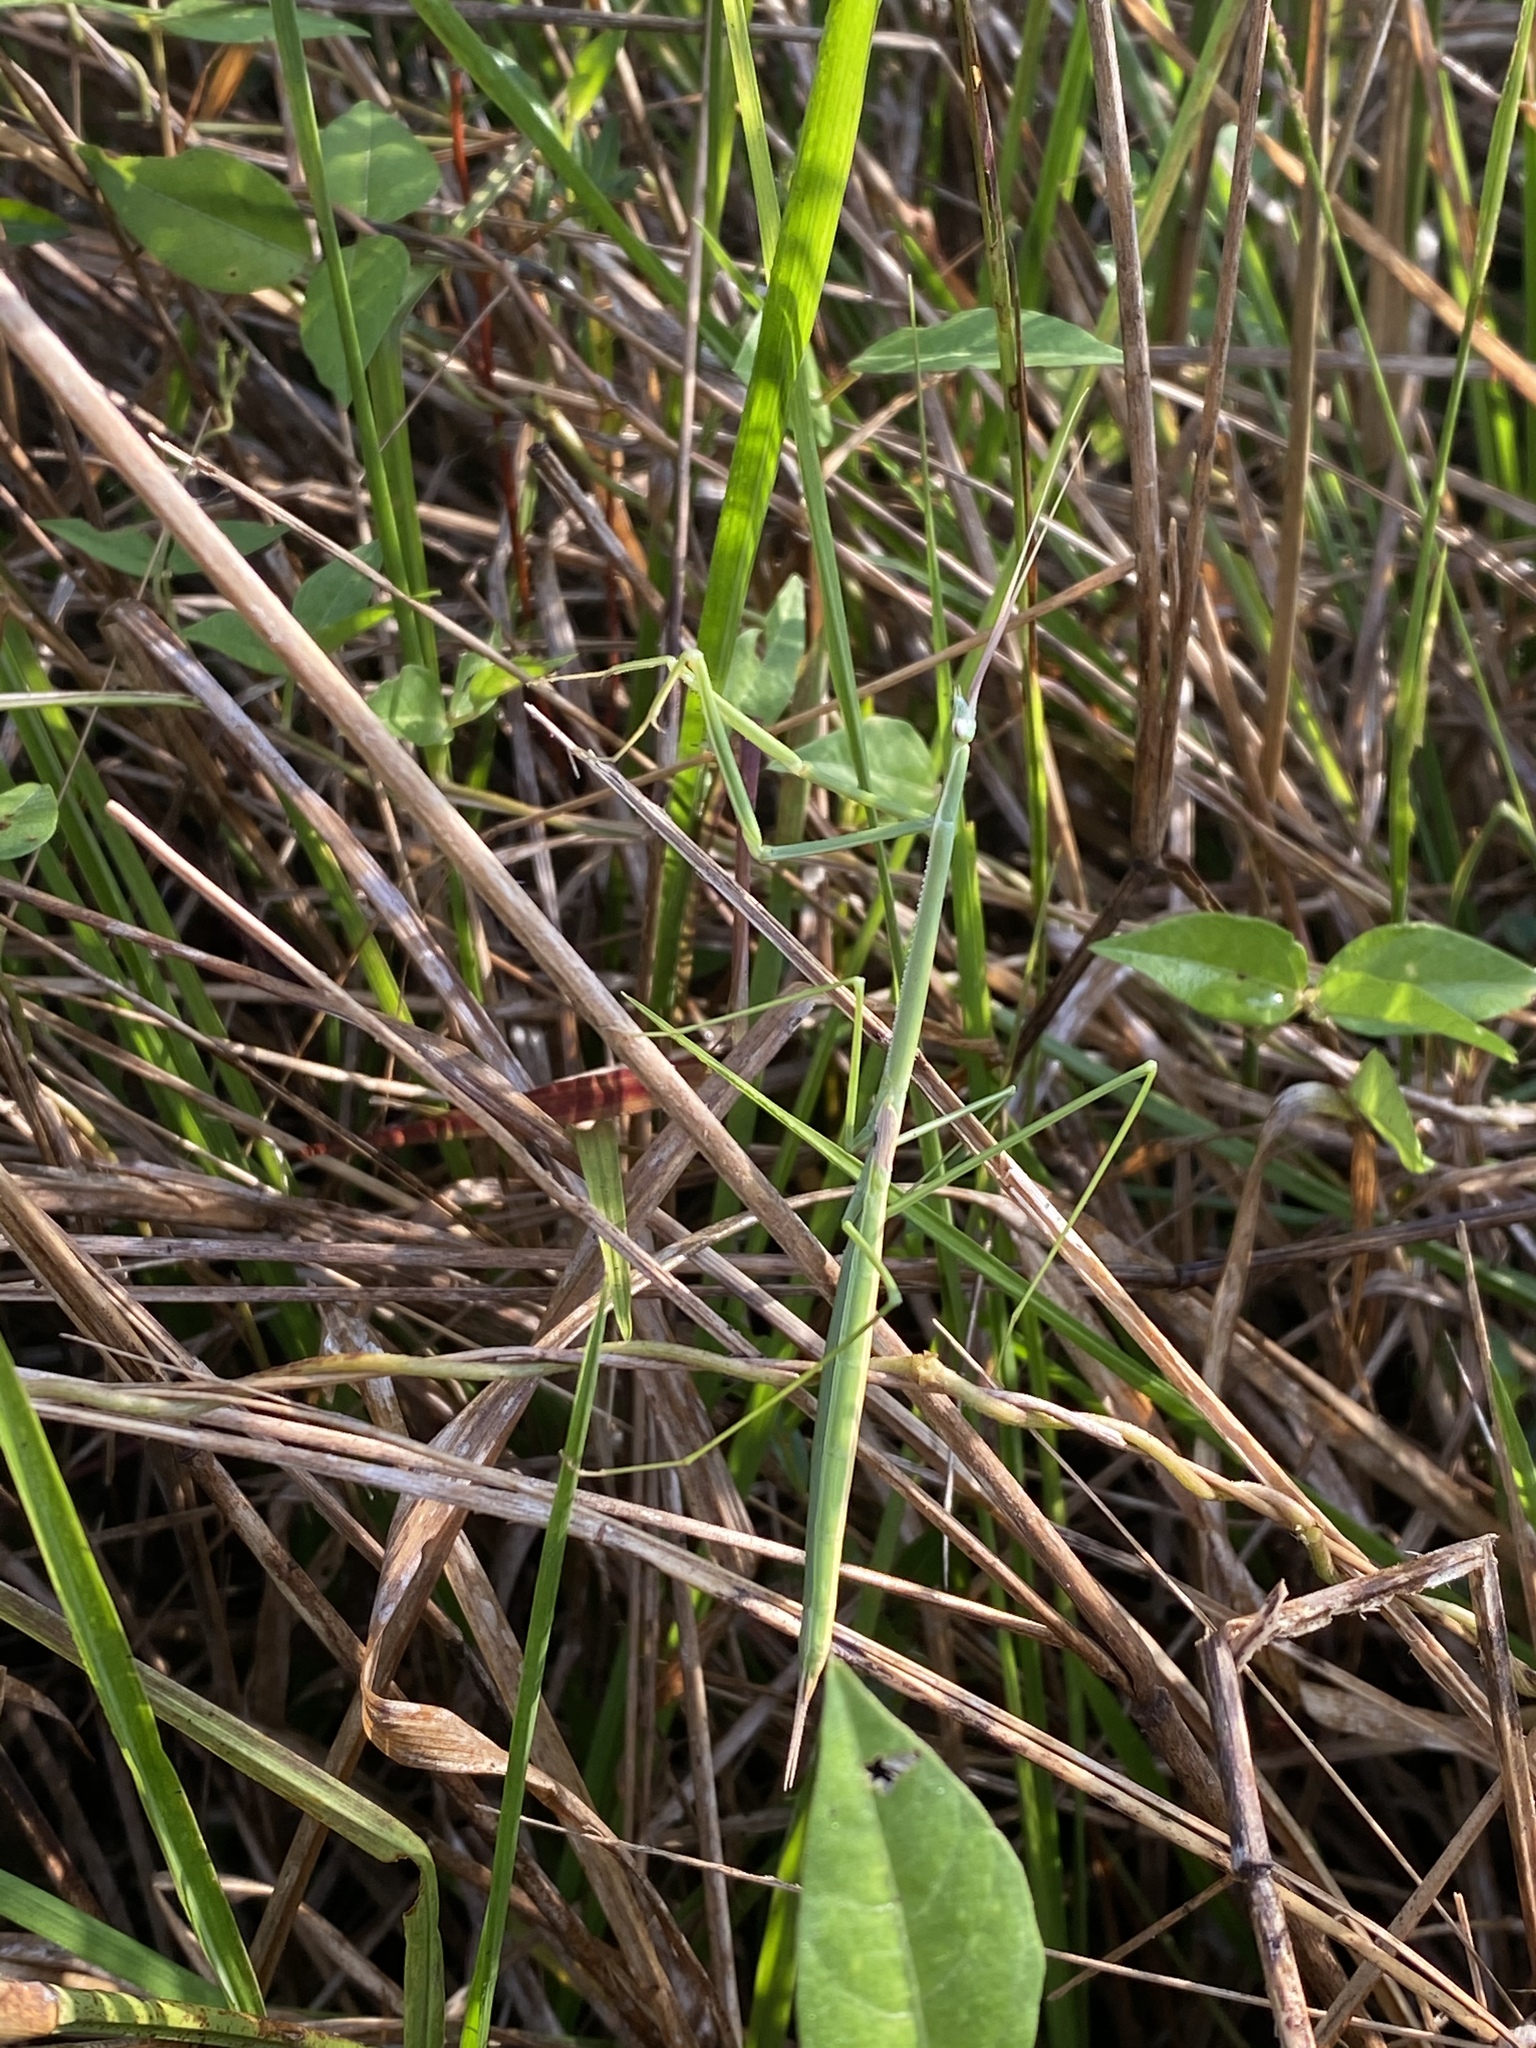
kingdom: Animalia
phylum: Arthropoda
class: Insecta
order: Mantodea
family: Coptopterygidae
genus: Brunneria
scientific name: Brunneria borealis
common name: Mantis
